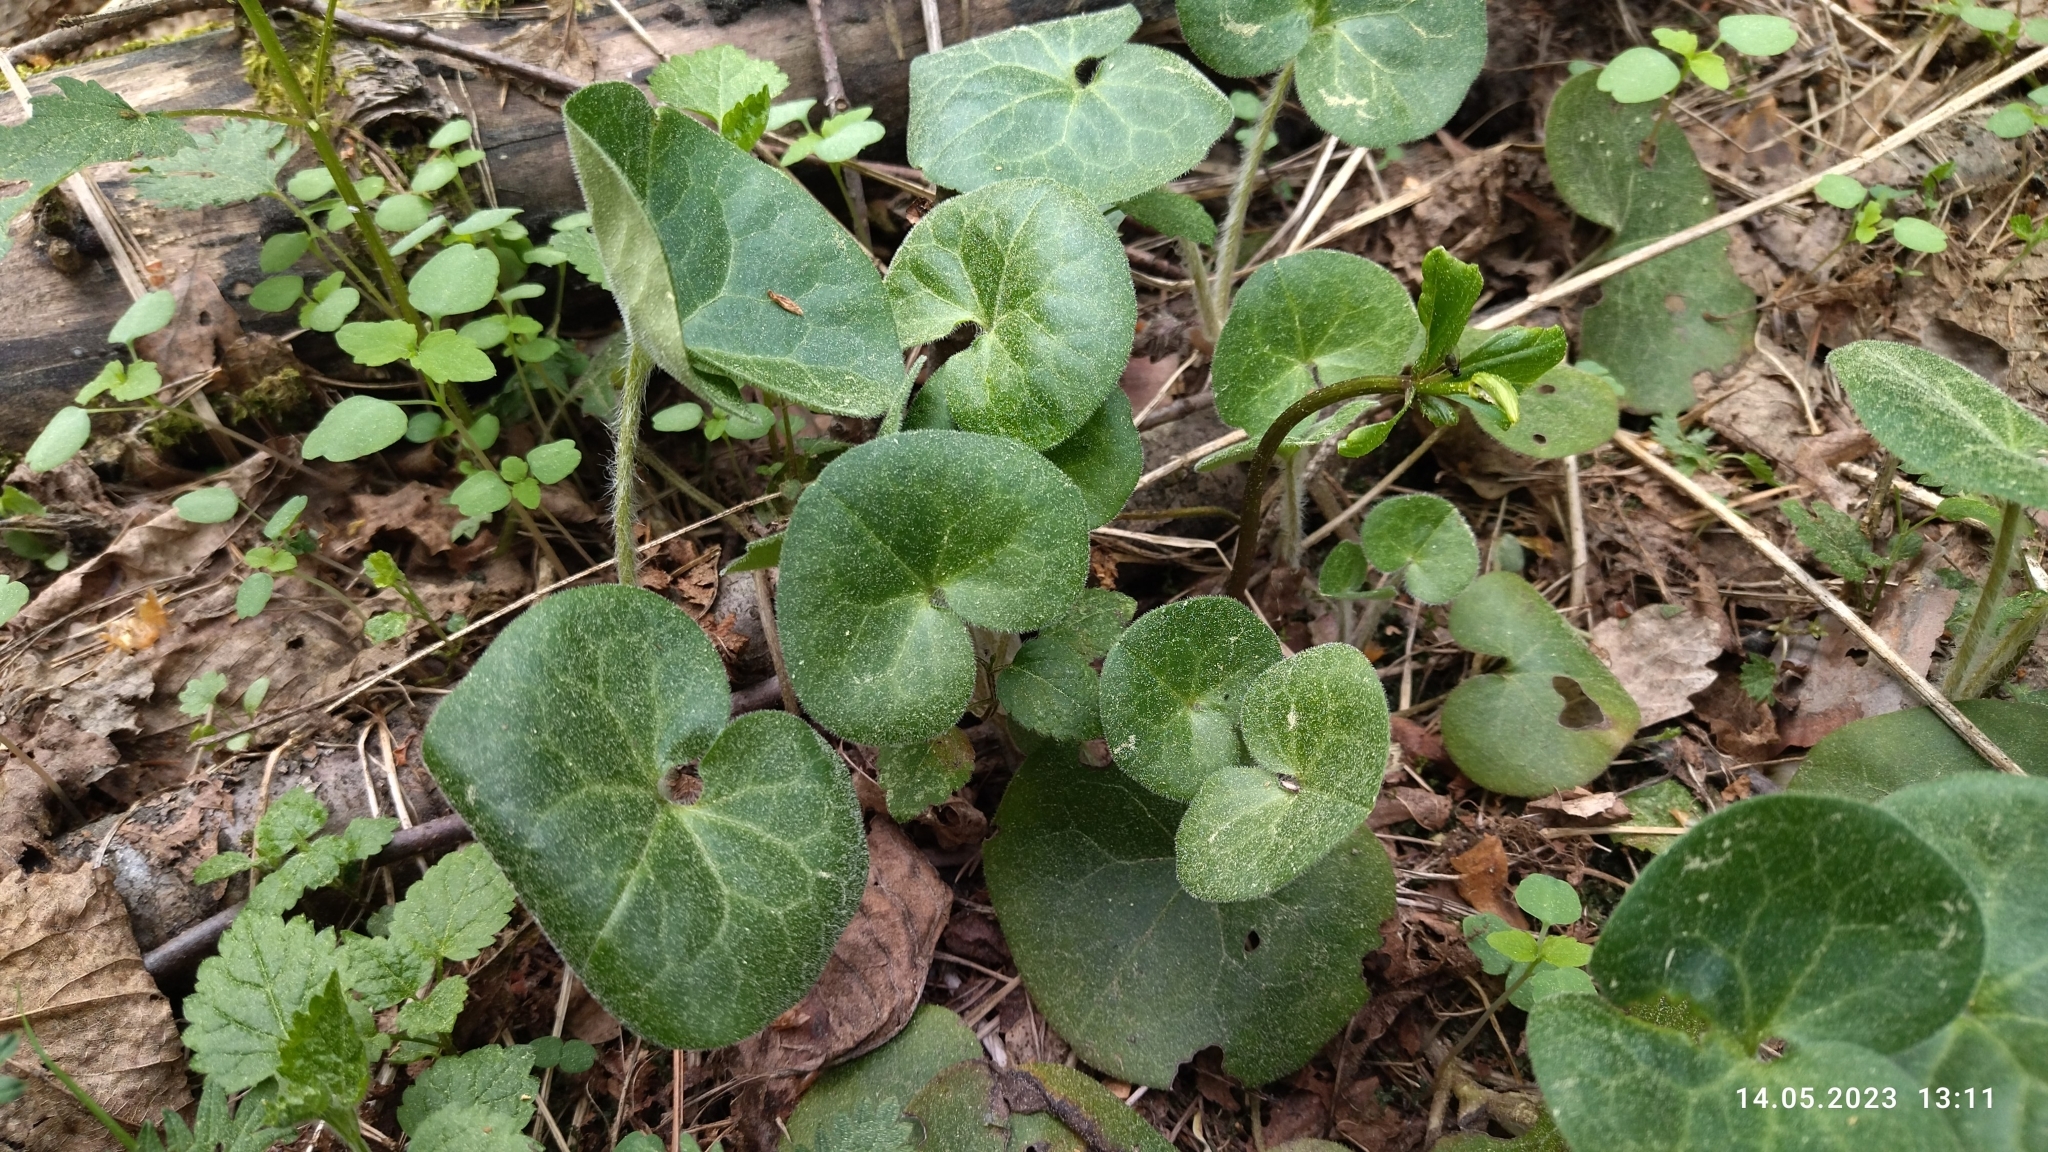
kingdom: Plantae
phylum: Tracheophyta
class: Magnoliopsida
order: Piperales
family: Aristolochiaceae
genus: Asarum
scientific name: Asarum europaeum
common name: Asarabacca
